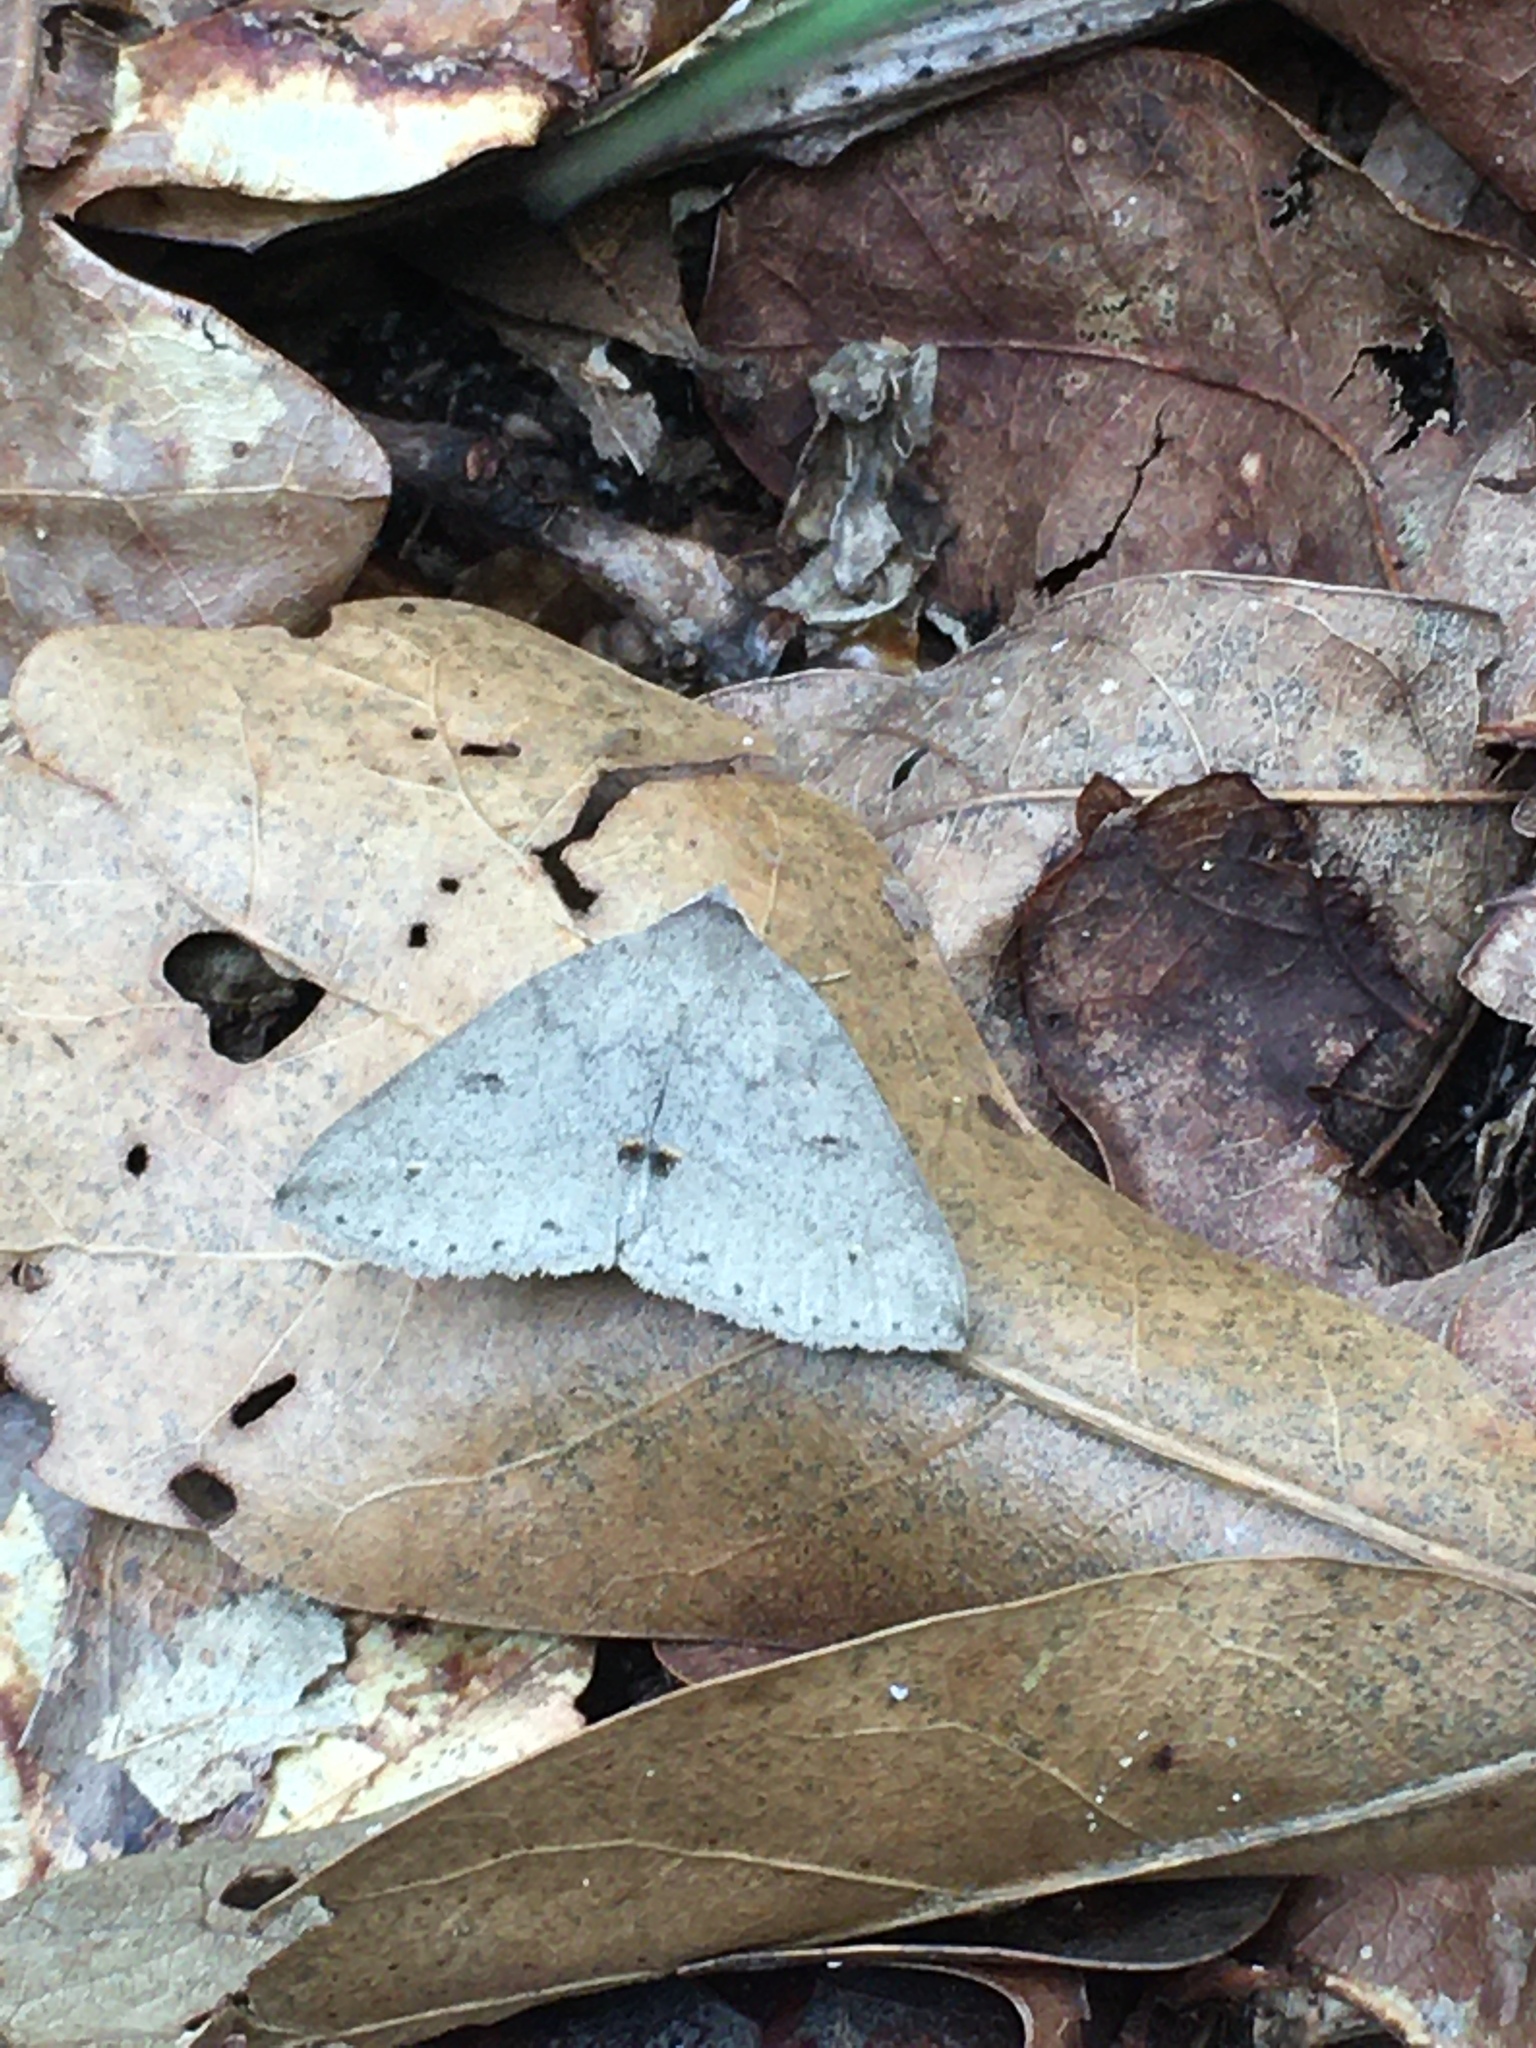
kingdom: Animalia
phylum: Arthropoda
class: Insecta
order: Lepidoptera
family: Erebidae
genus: Argyrostrotis
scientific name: Argyrostrotis flavistriaria
